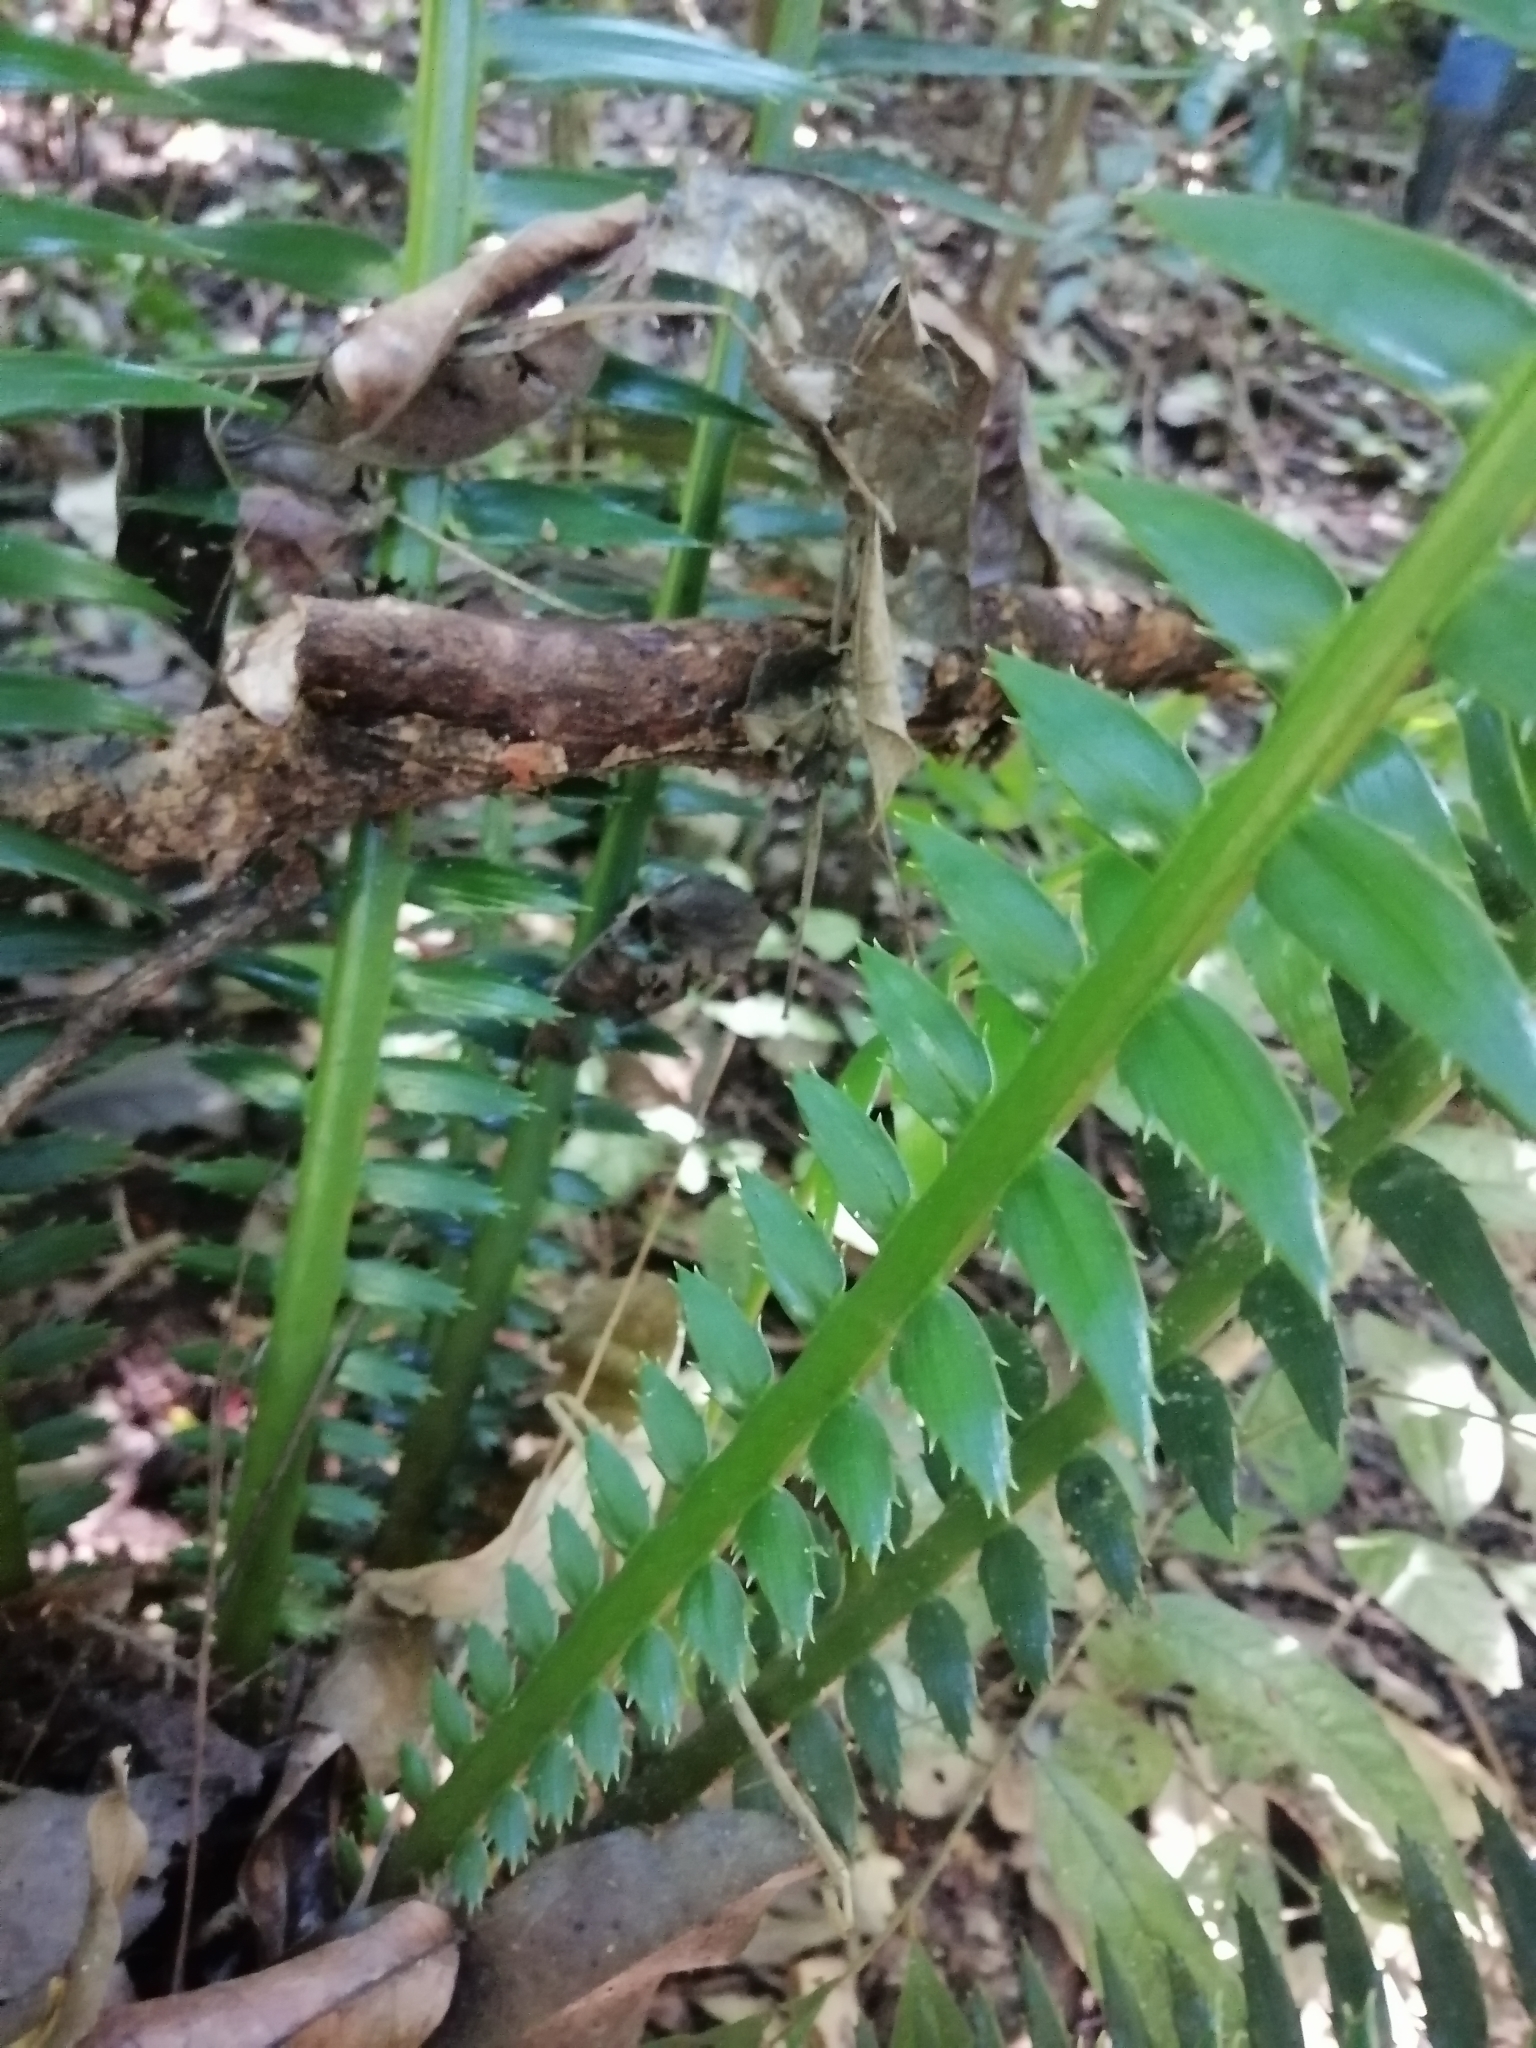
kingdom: Plantae
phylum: Tracheophyta
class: Cycadopsida
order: Cycadales
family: Zamiaceae
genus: Dioon
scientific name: Dioon spinulosum
